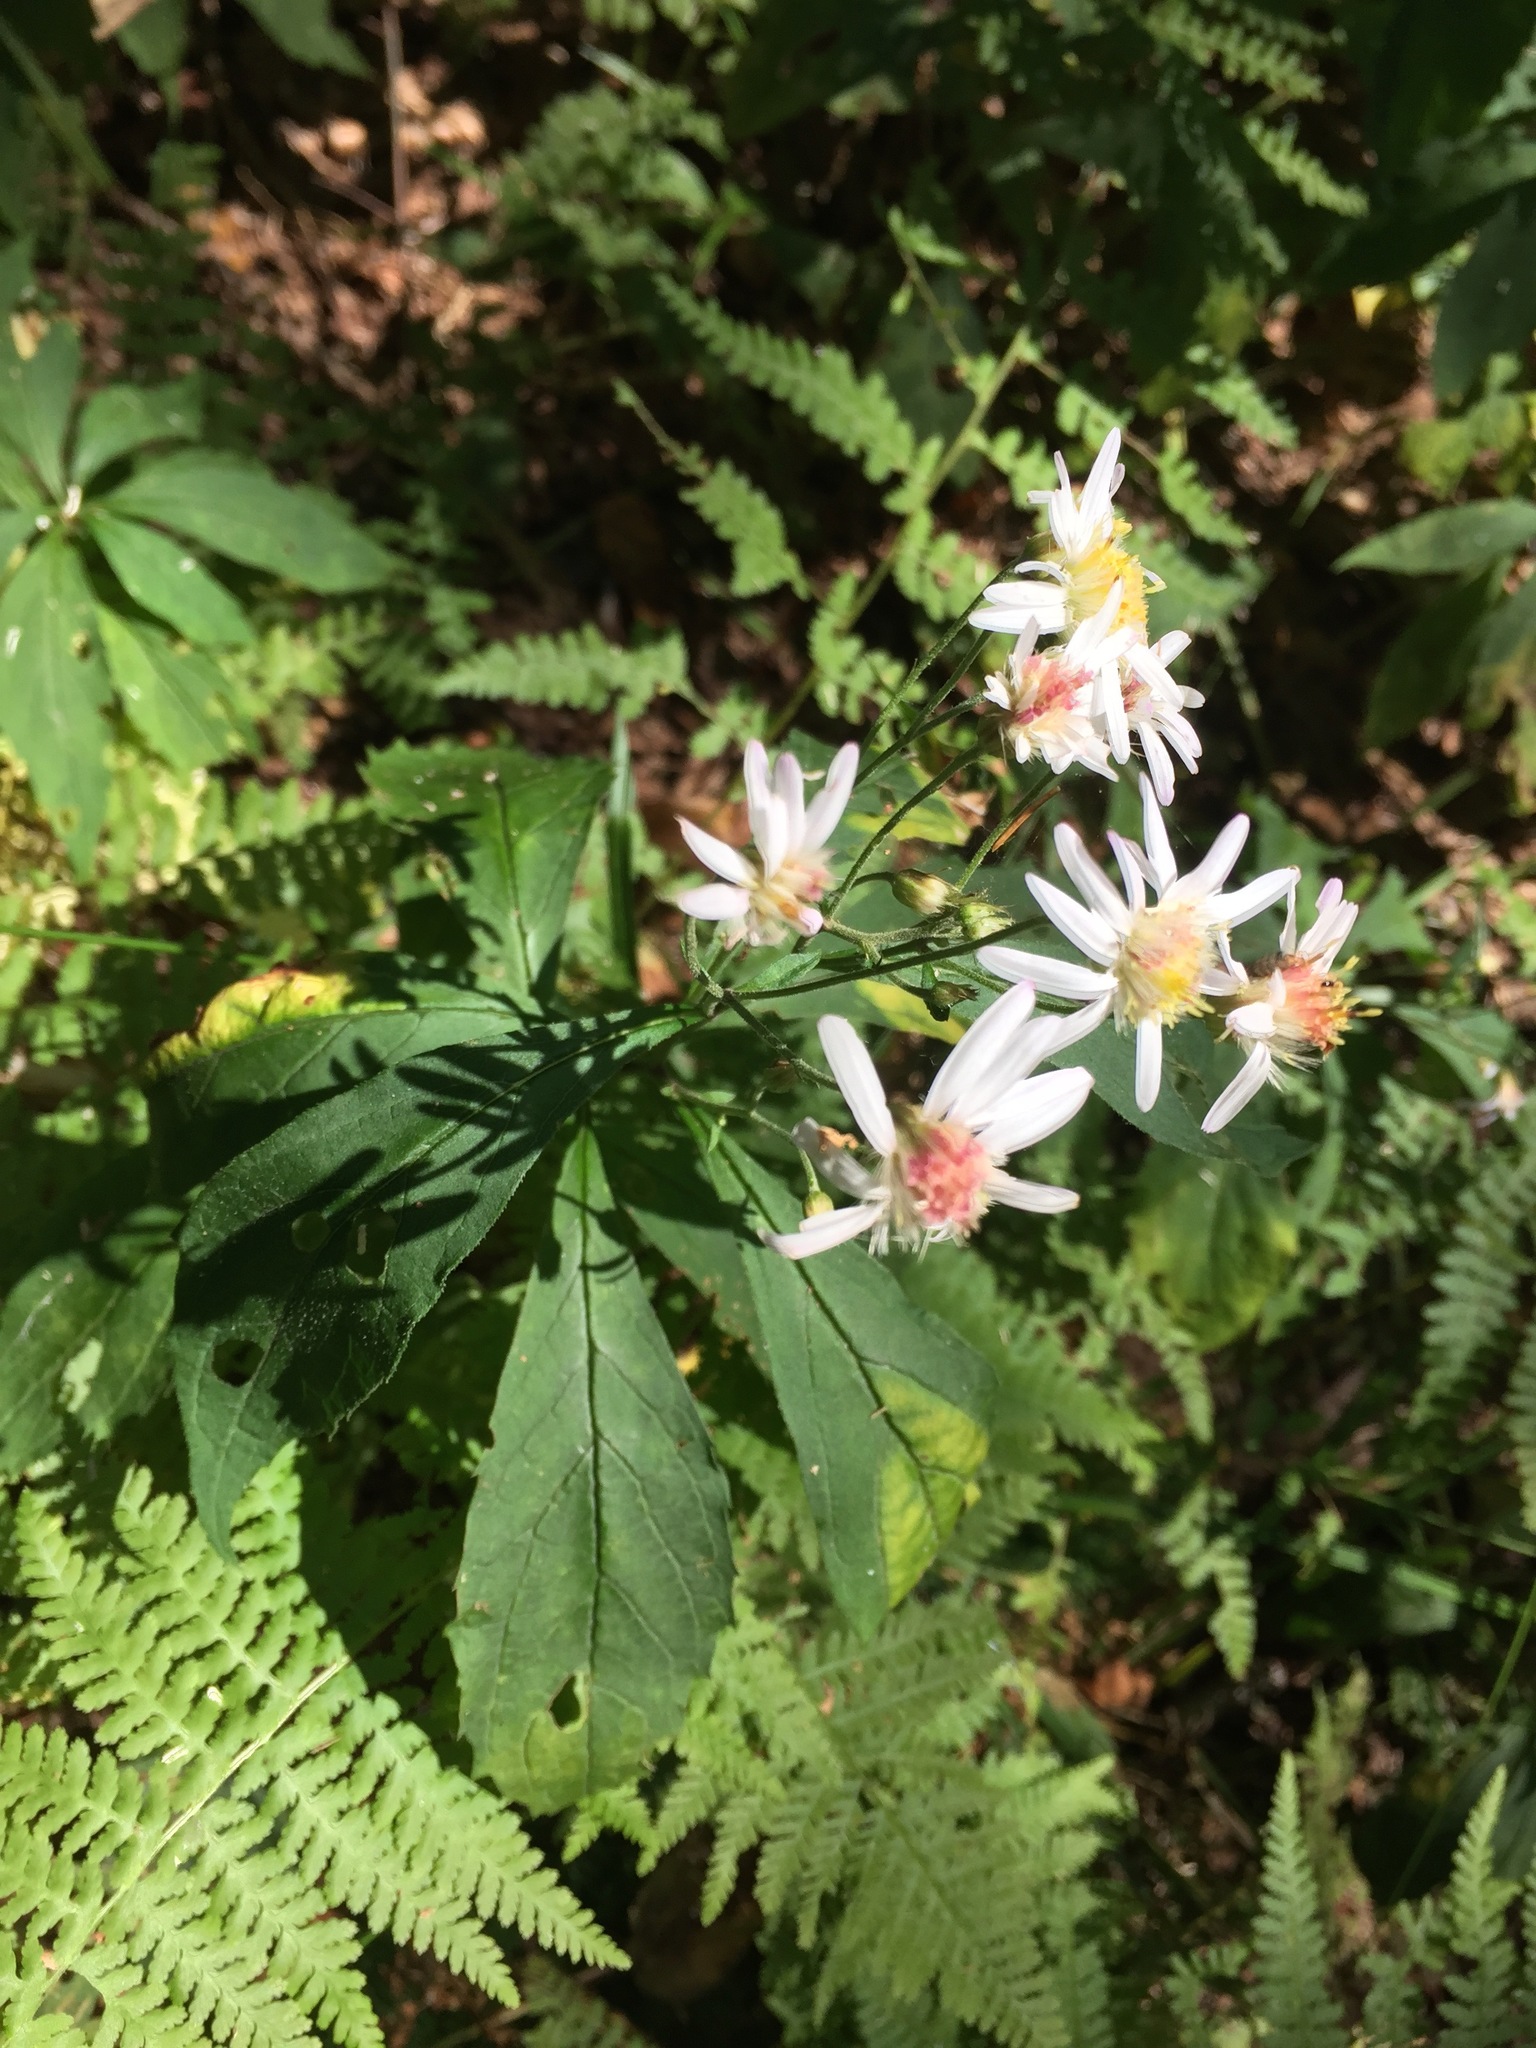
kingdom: Plantae
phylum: Tracheophyta
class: Magnoliopsida
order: Asterales
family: Asteraceae
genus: Oclemena
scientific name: Oclemena acuminata
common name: Mountain aster
